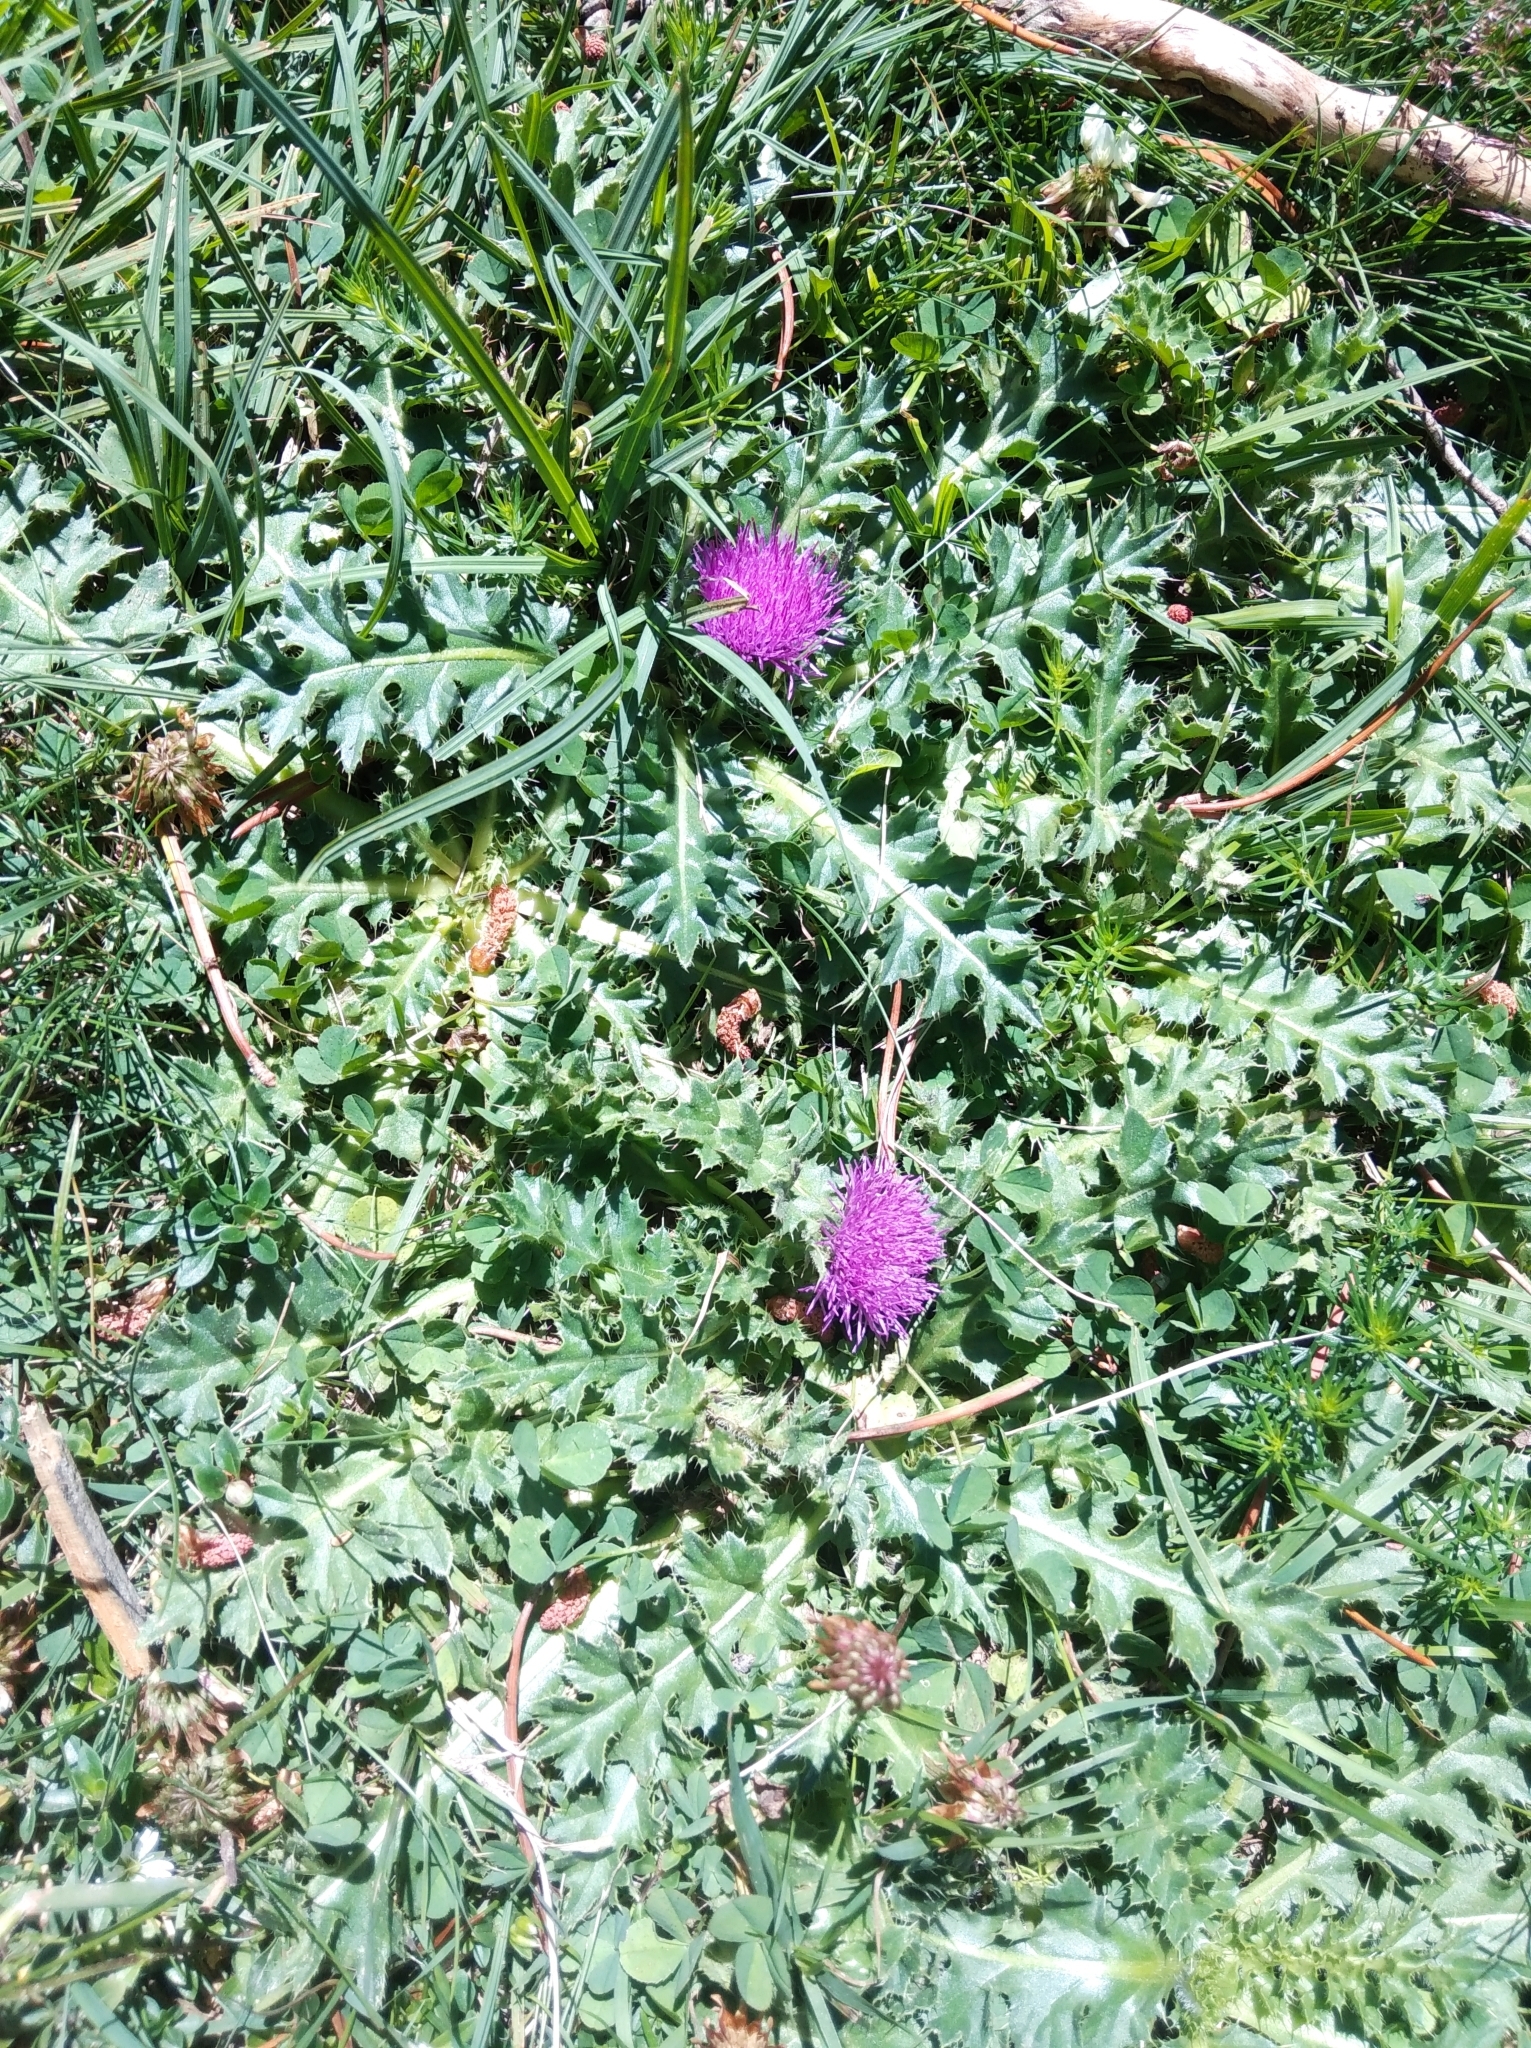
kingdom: Plantae
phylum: Tracheophyta
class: Magnoliopsida
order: Asterales
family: Asteraceae
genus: Cirsium
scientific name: Cirsium acaulon
